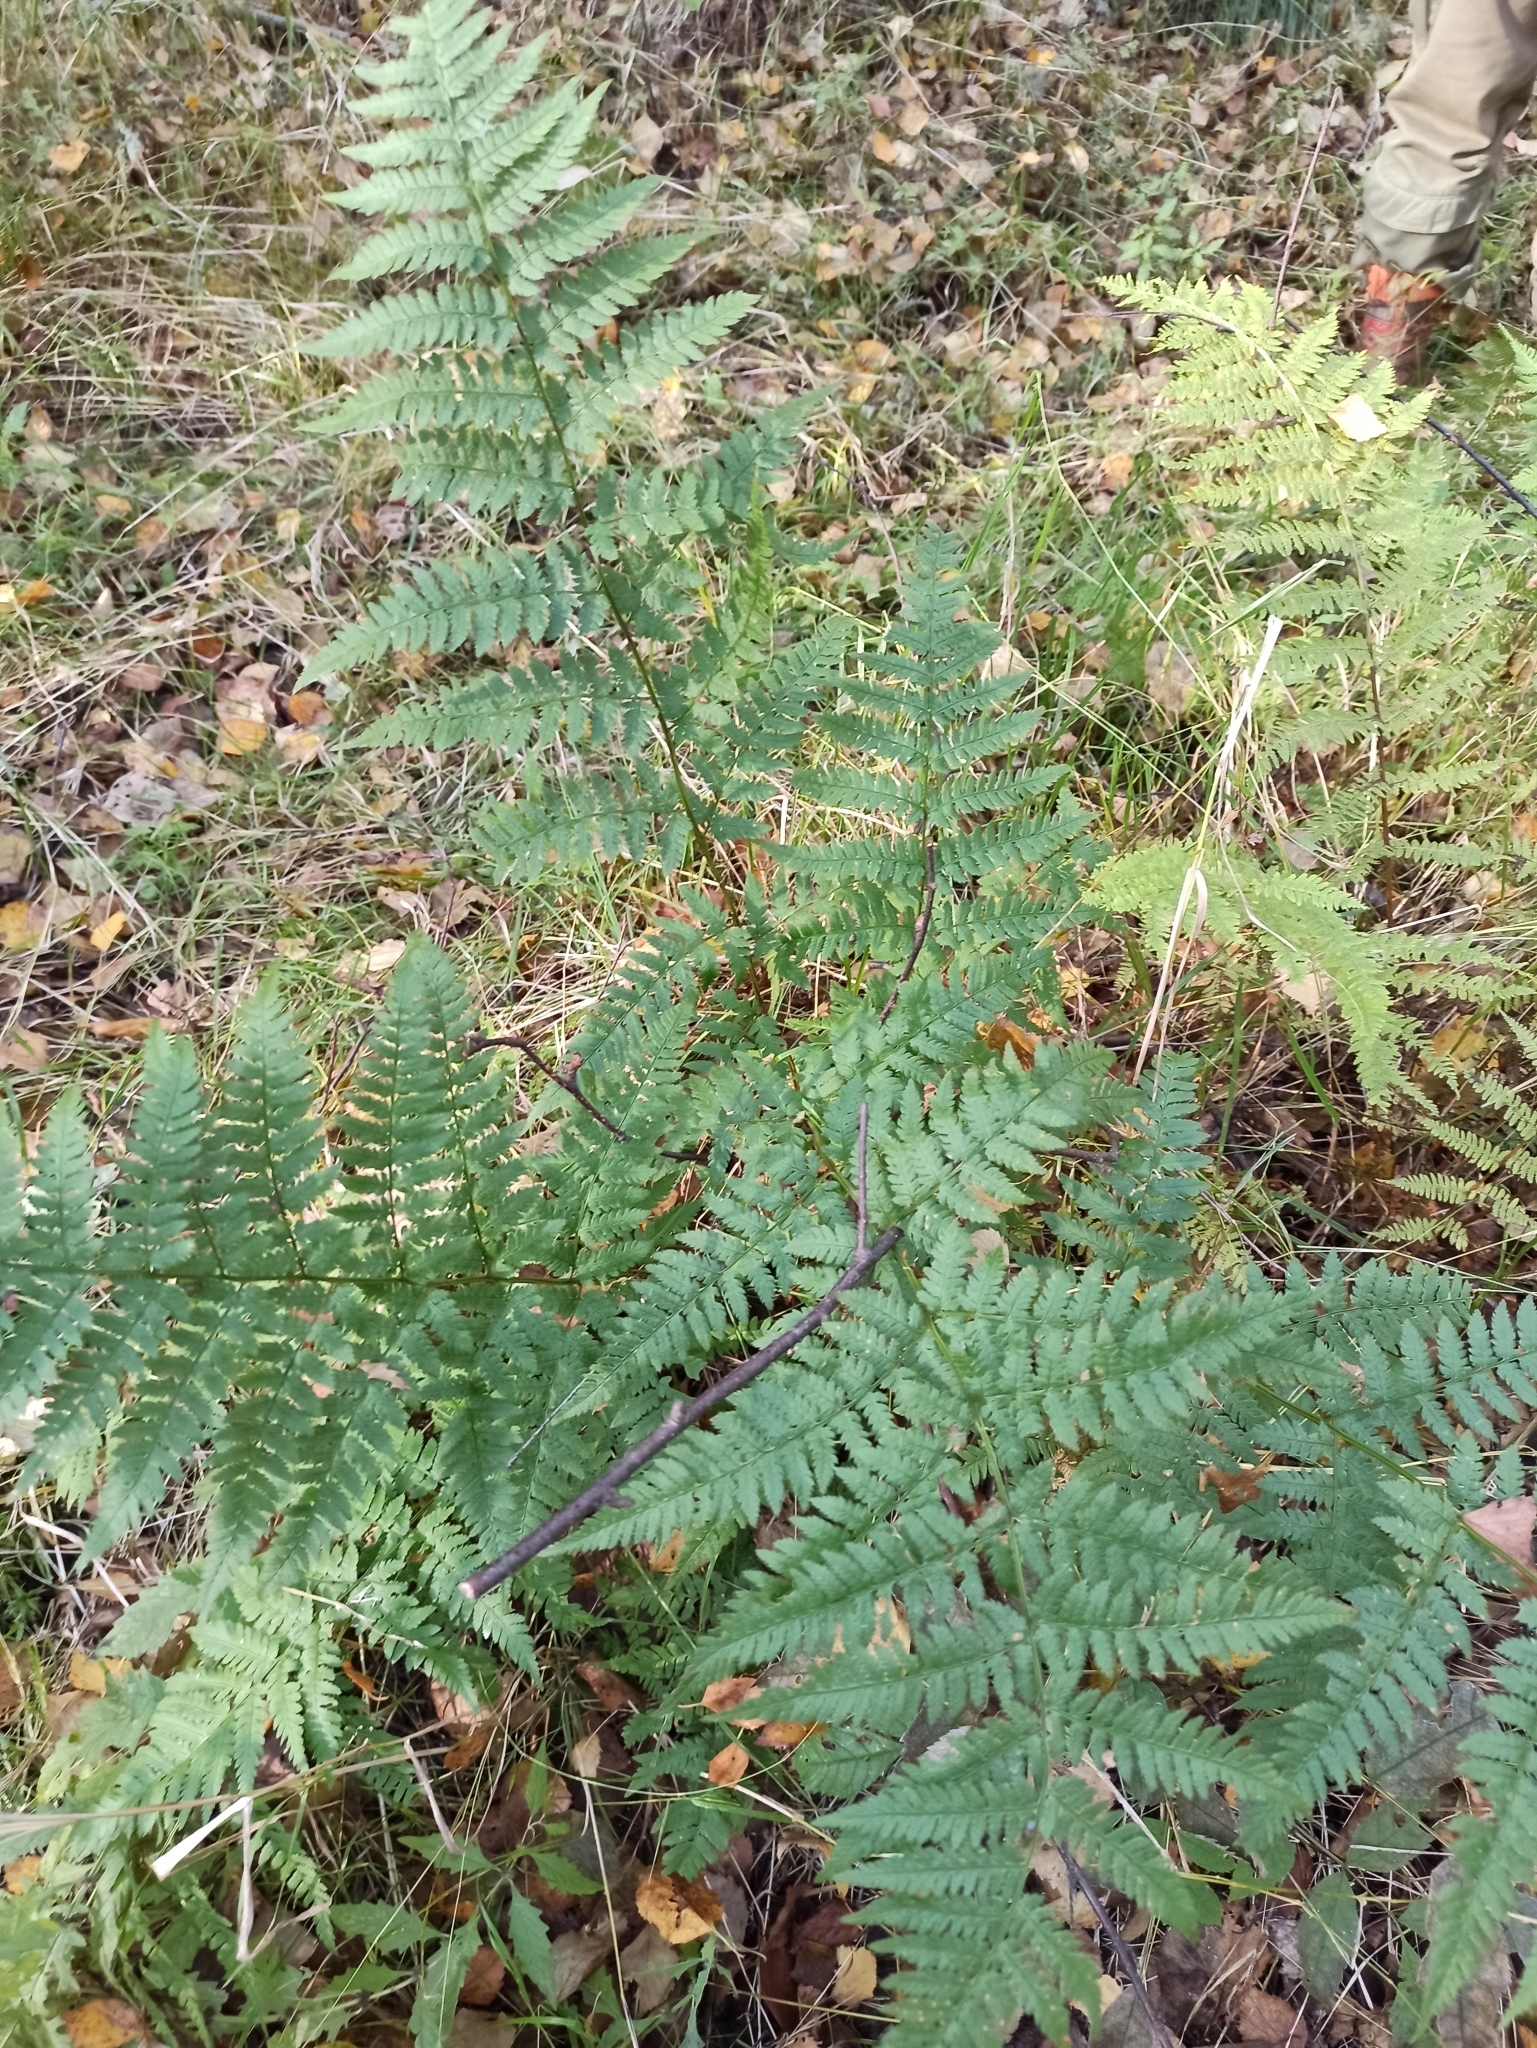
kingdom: Plantae
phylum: Tracheophyta
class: Polypodiopsida
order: Polypodiales
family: Dryopteridaceae
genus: Dryopteris
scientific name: Dryopteris carthusiana
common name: Narrow buckler-fern
